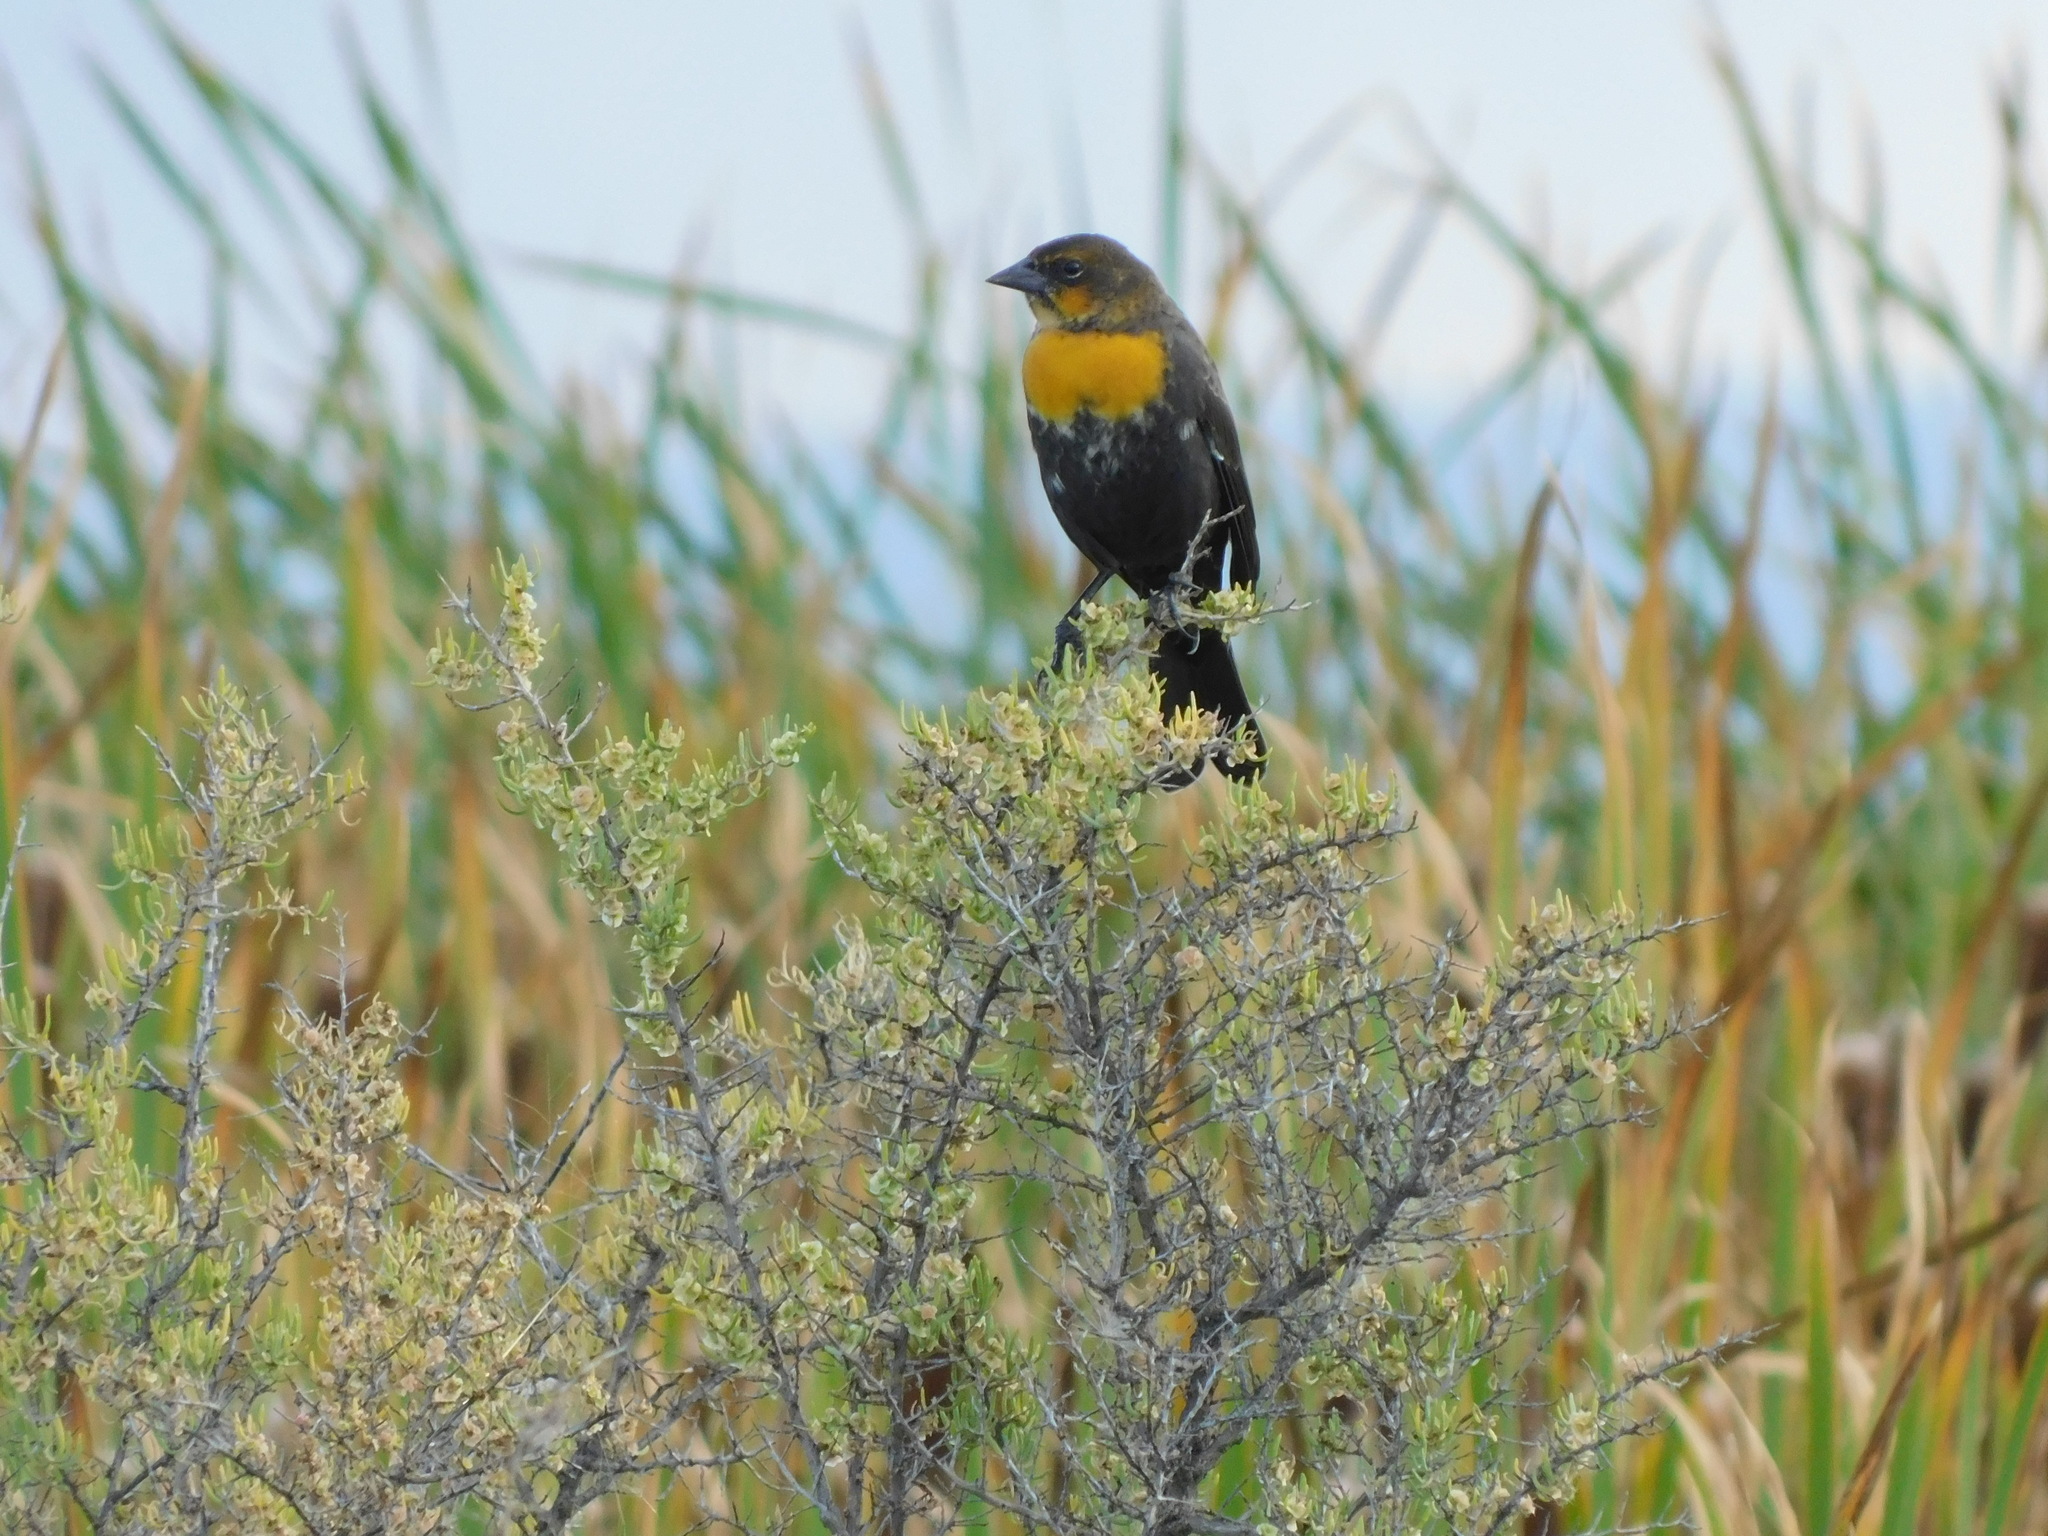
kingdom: Animalia
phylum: Chordata
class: Aves
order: Passeriformes
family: Icteridae
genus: Xanthocephalus
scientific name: Xanthocephalus xanthocephalus
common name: Yellow-headed blackbird
